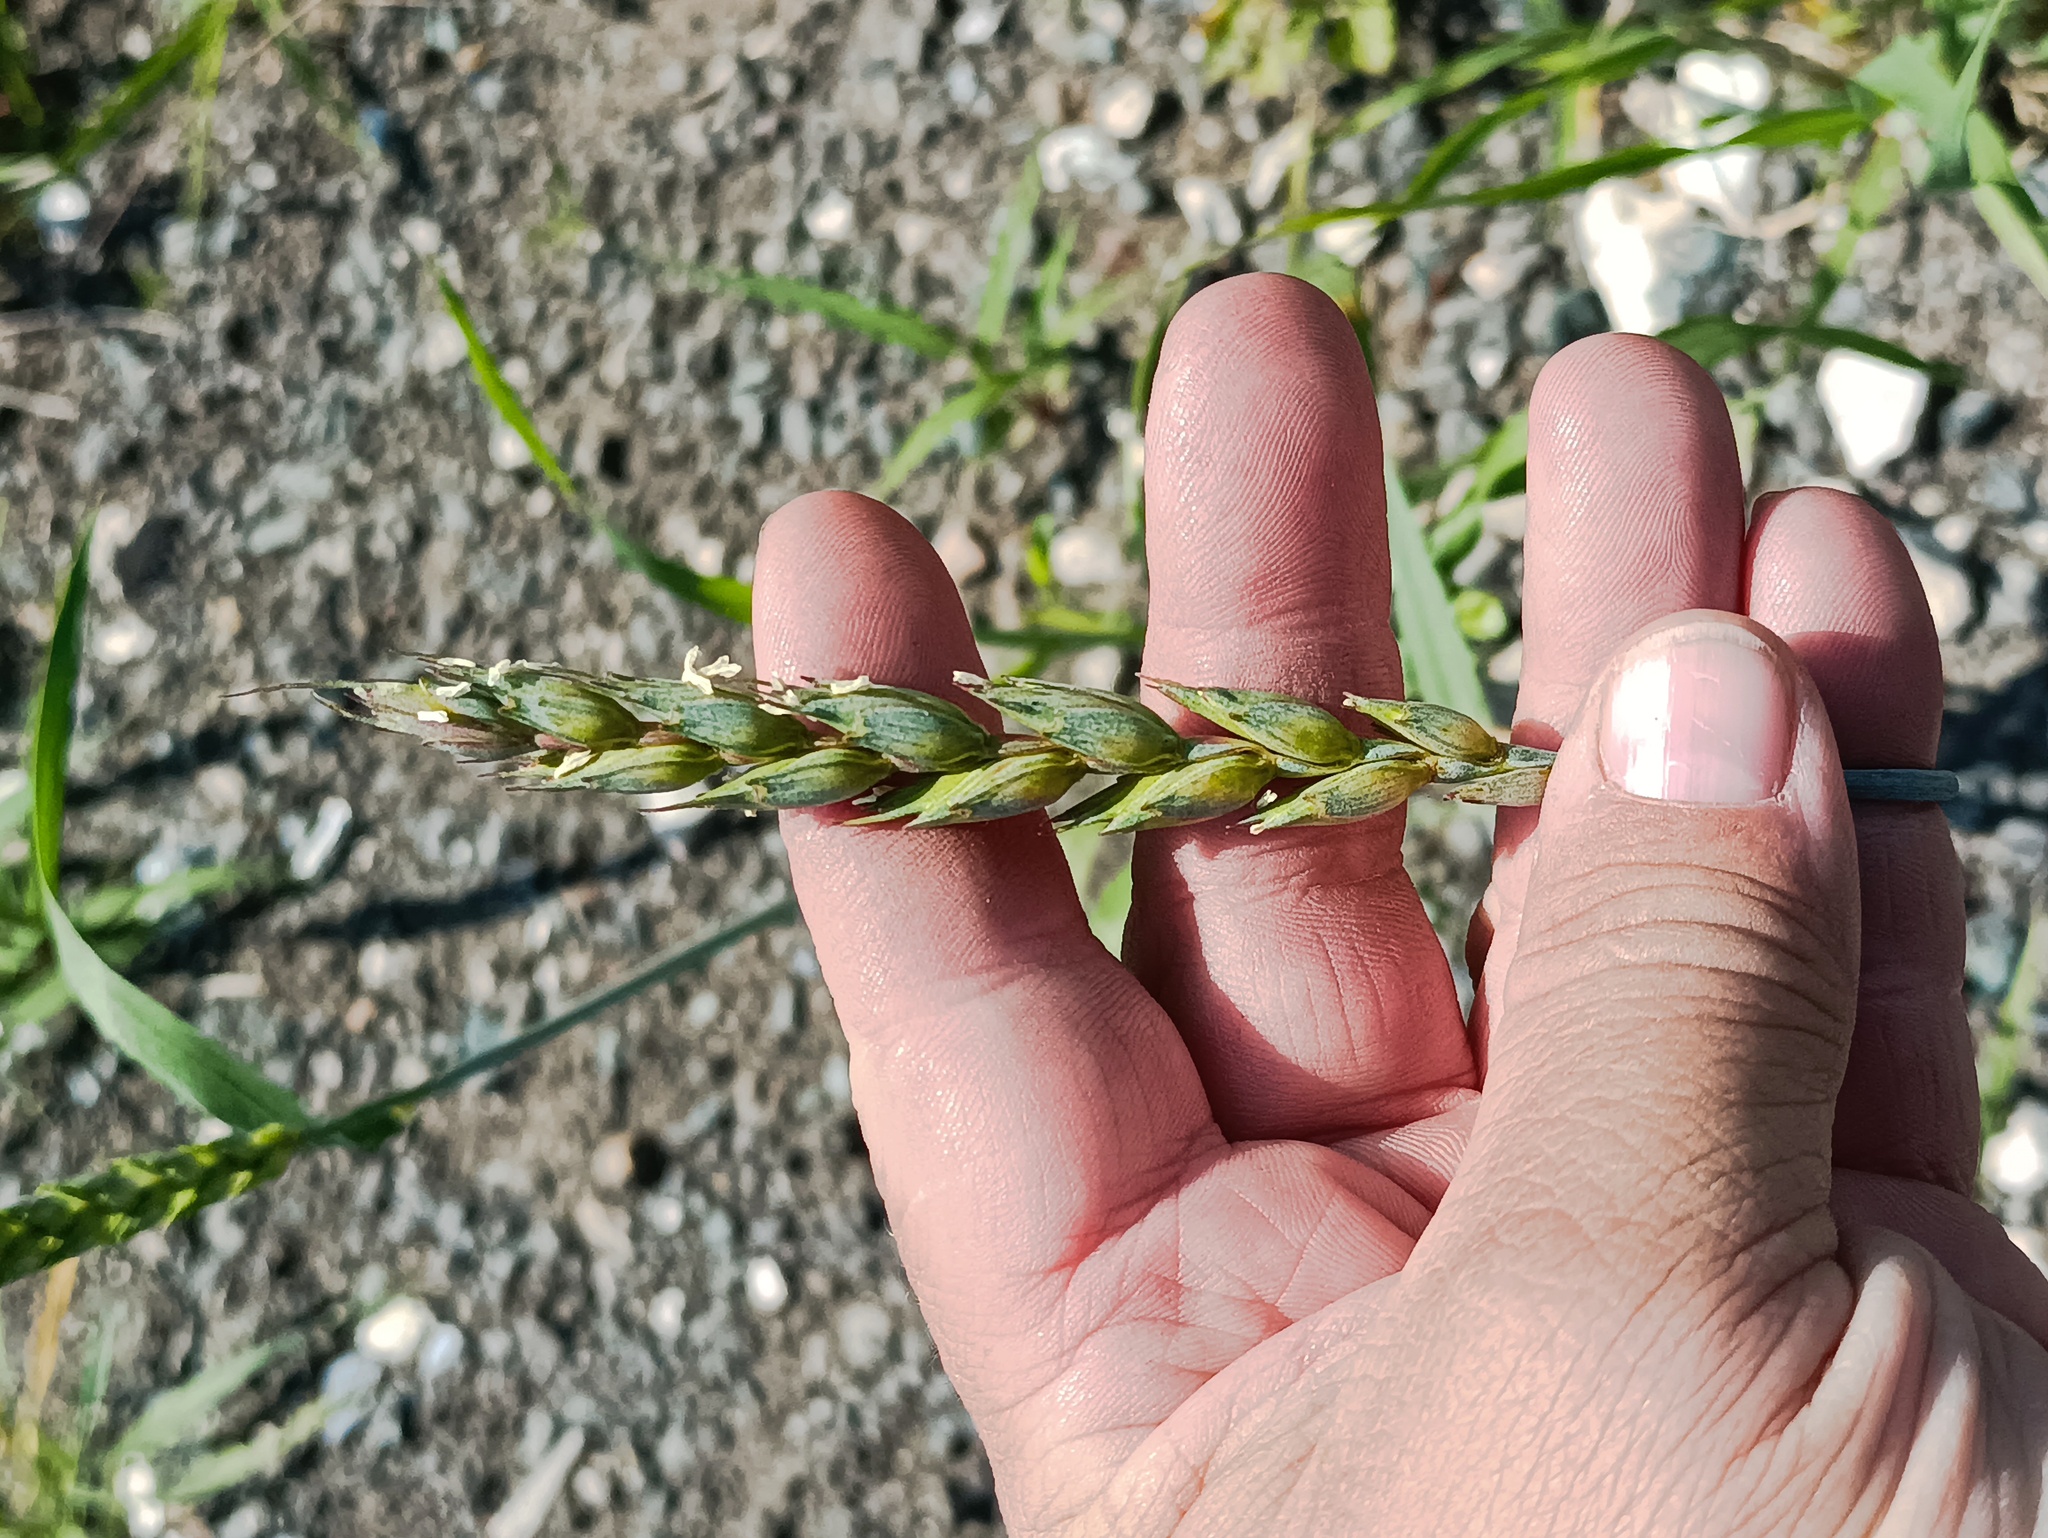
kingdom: Plantae
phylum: Tracheophyta
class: Liliopsida
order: Poales
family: Poaceae
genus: Triticum
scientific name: Triticum aestivum
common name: Common wheat
